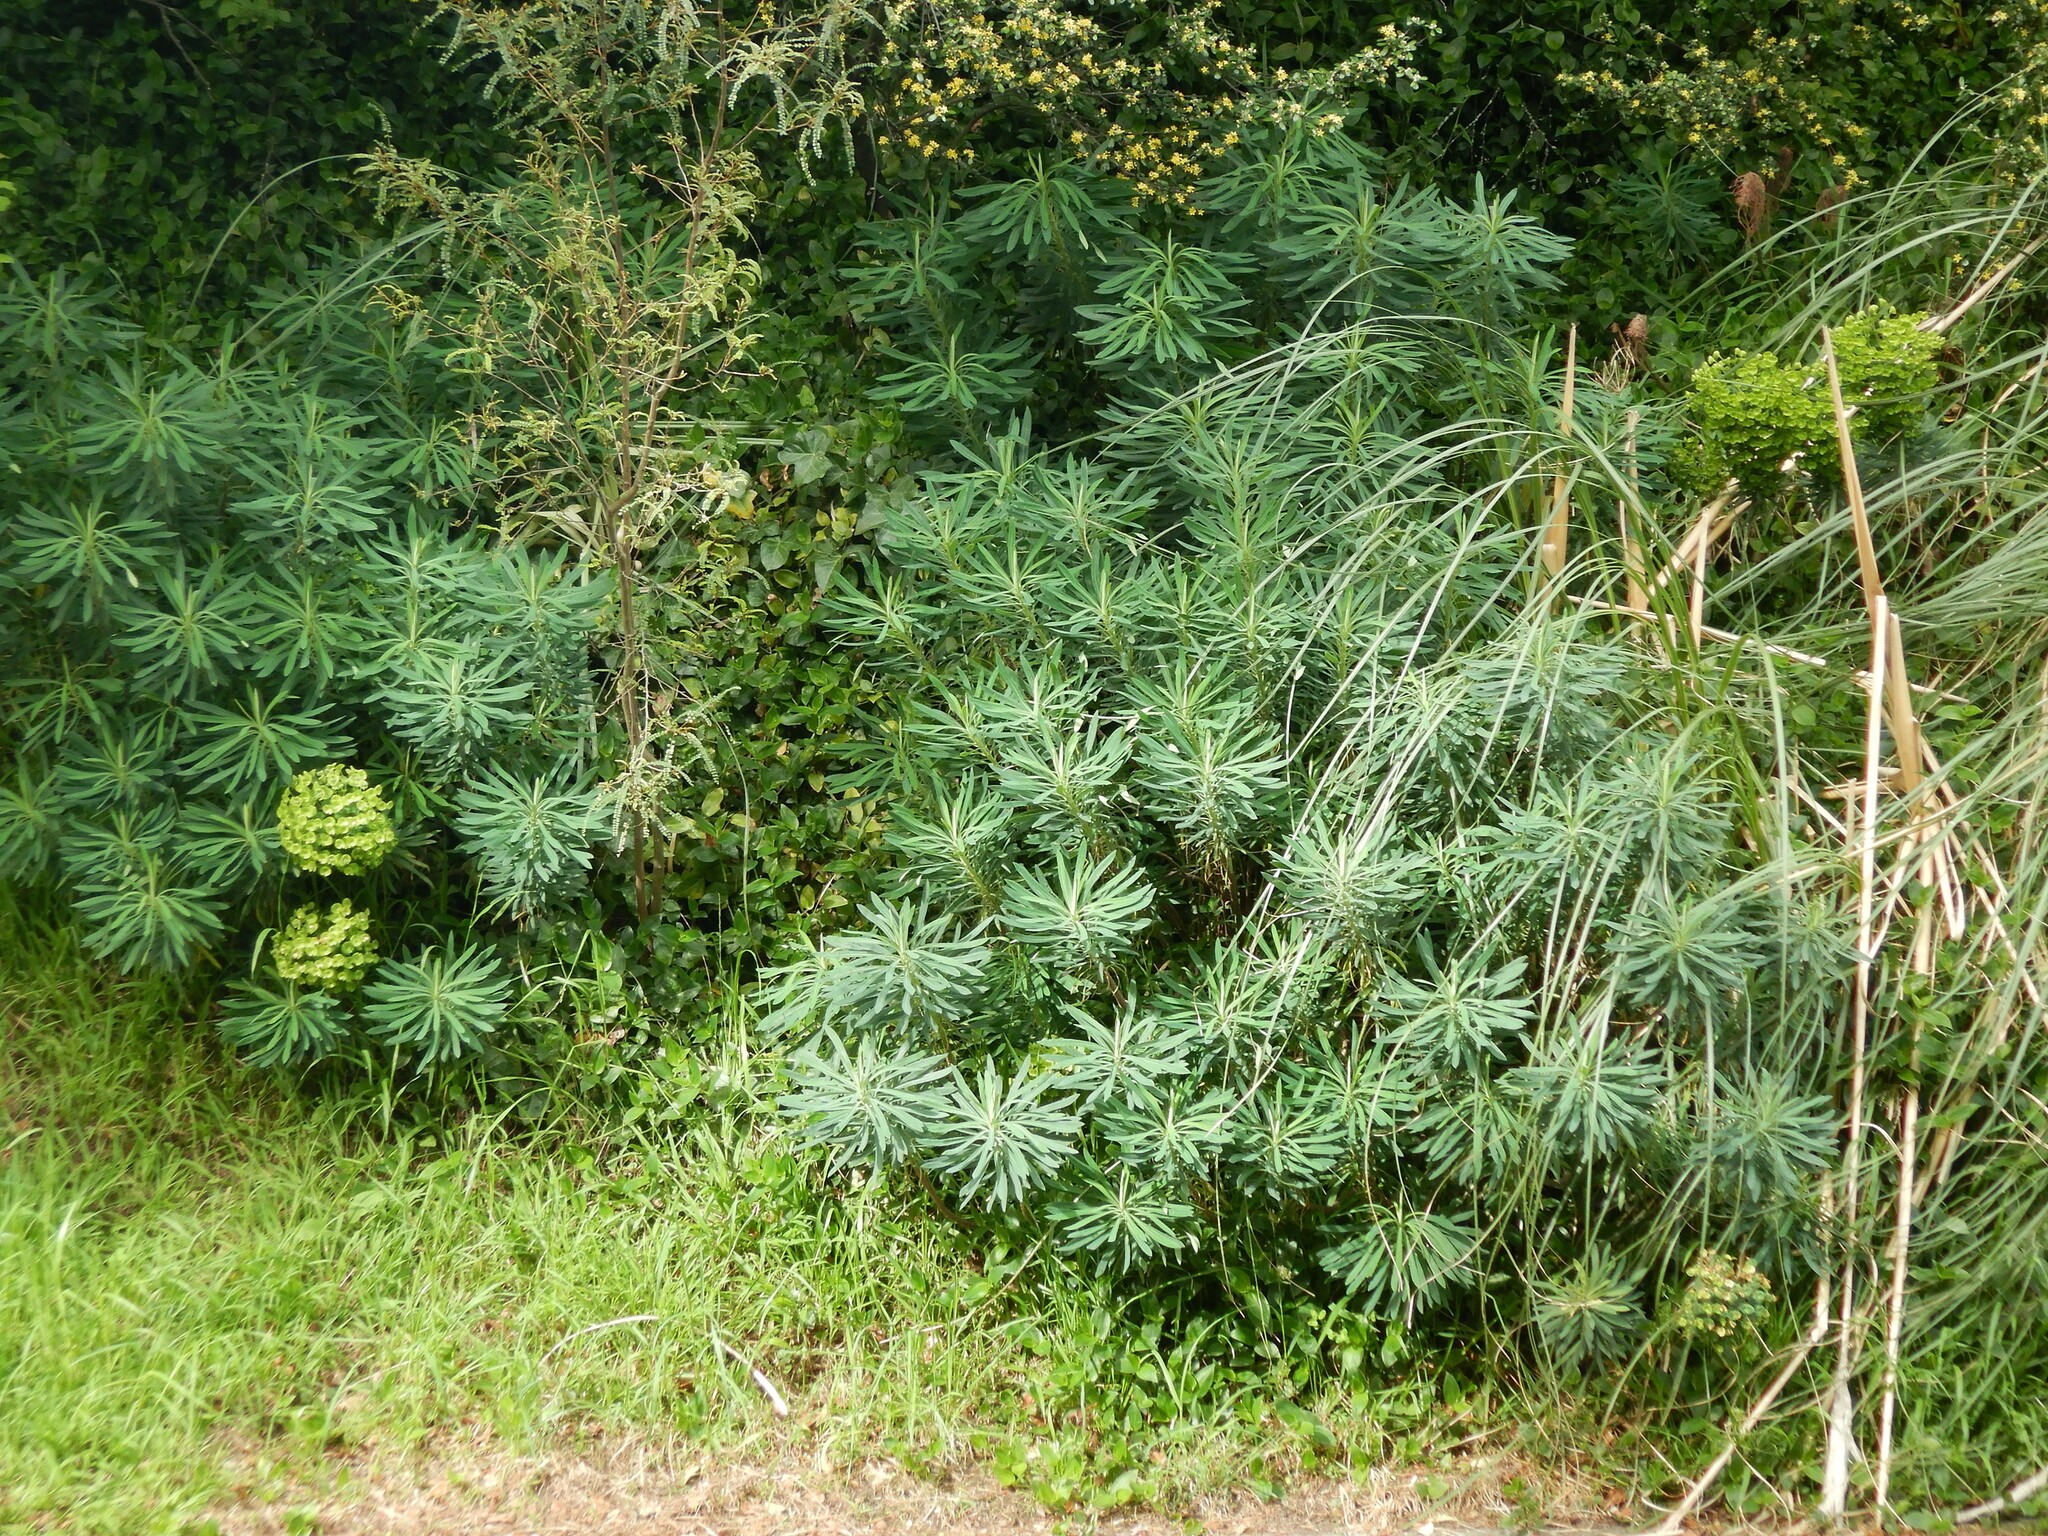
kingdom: Plantae
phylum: Tracheophyta
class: Magnoliopsida
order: Malpighiales
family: Euphorbiaceae
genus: Euphorbia
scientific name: Euphorbia characias
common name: Mediterranean spurge
